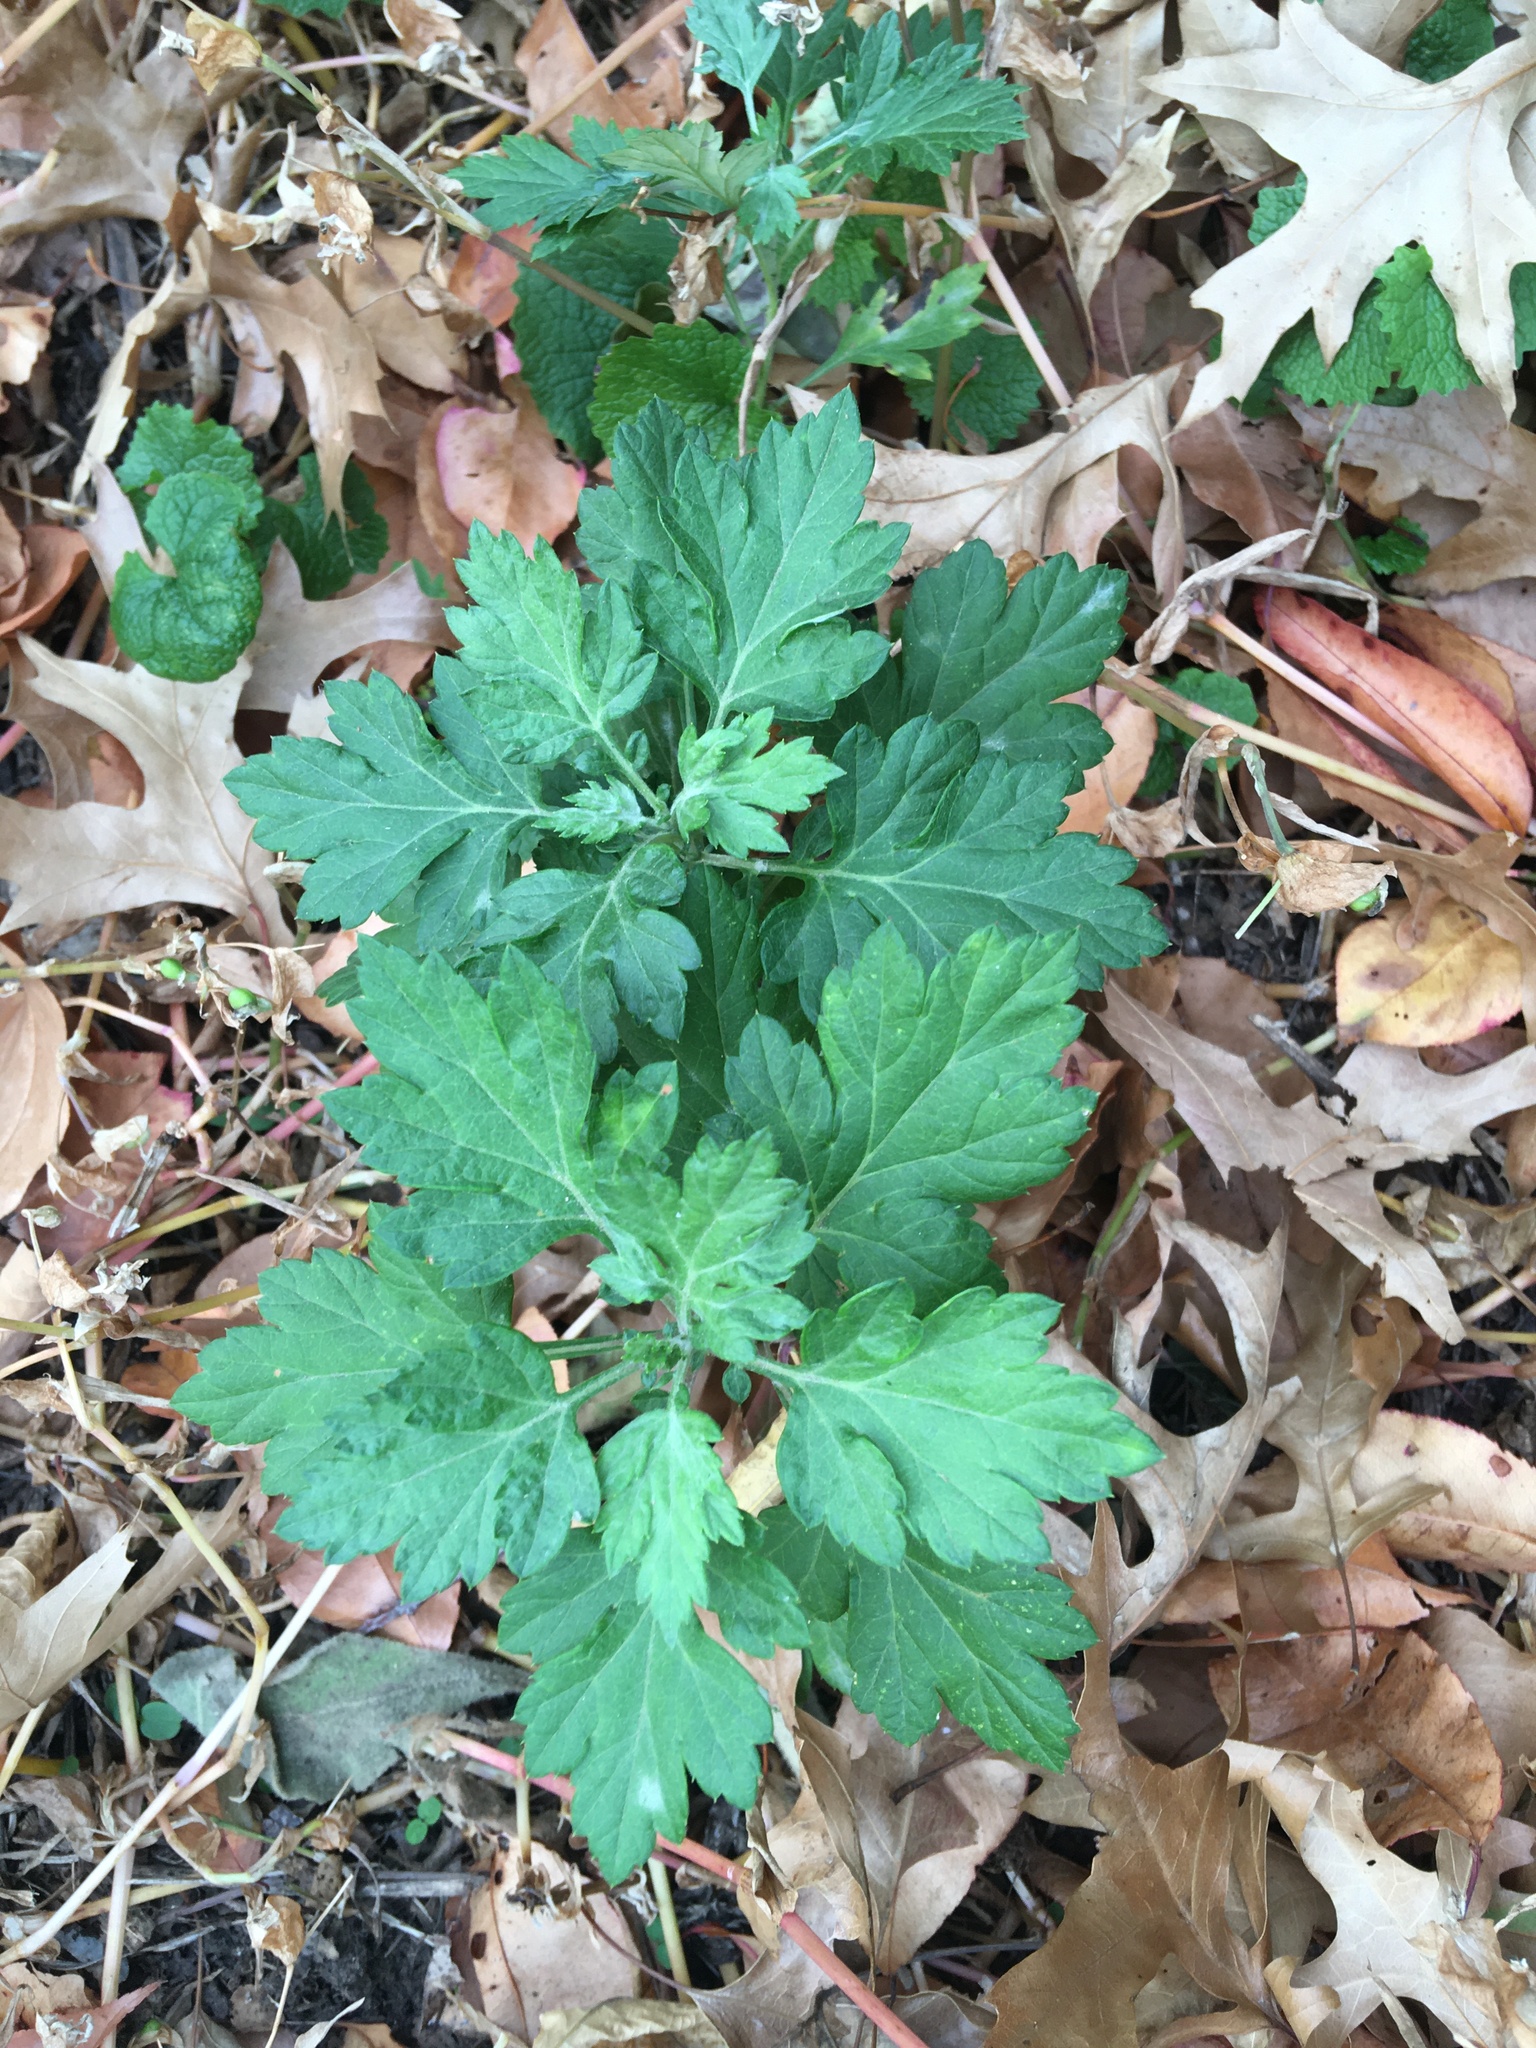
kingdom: Plantae
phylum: Tracheophyta
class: Magnoliopsida
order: Asterales
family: Asteraceae
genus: Artemisia
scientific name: Artemisia vulgaris
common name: Mugwort
